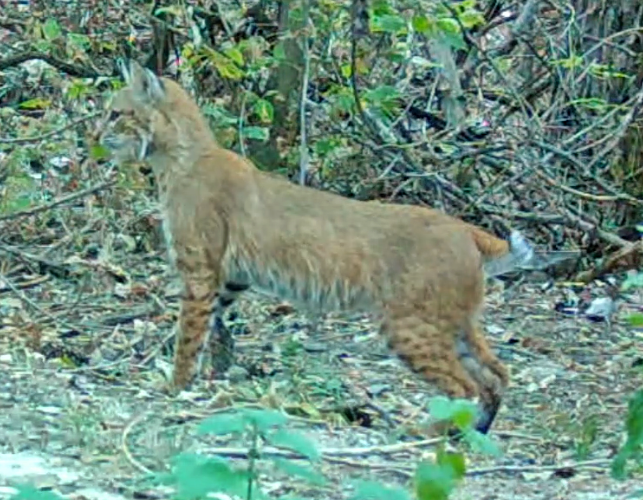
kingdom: Animalia
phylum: Chordata
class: Mammalia
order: Carnivora
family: Felidae
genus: Lynx
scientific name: Lynx rufus
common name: Bobcat
